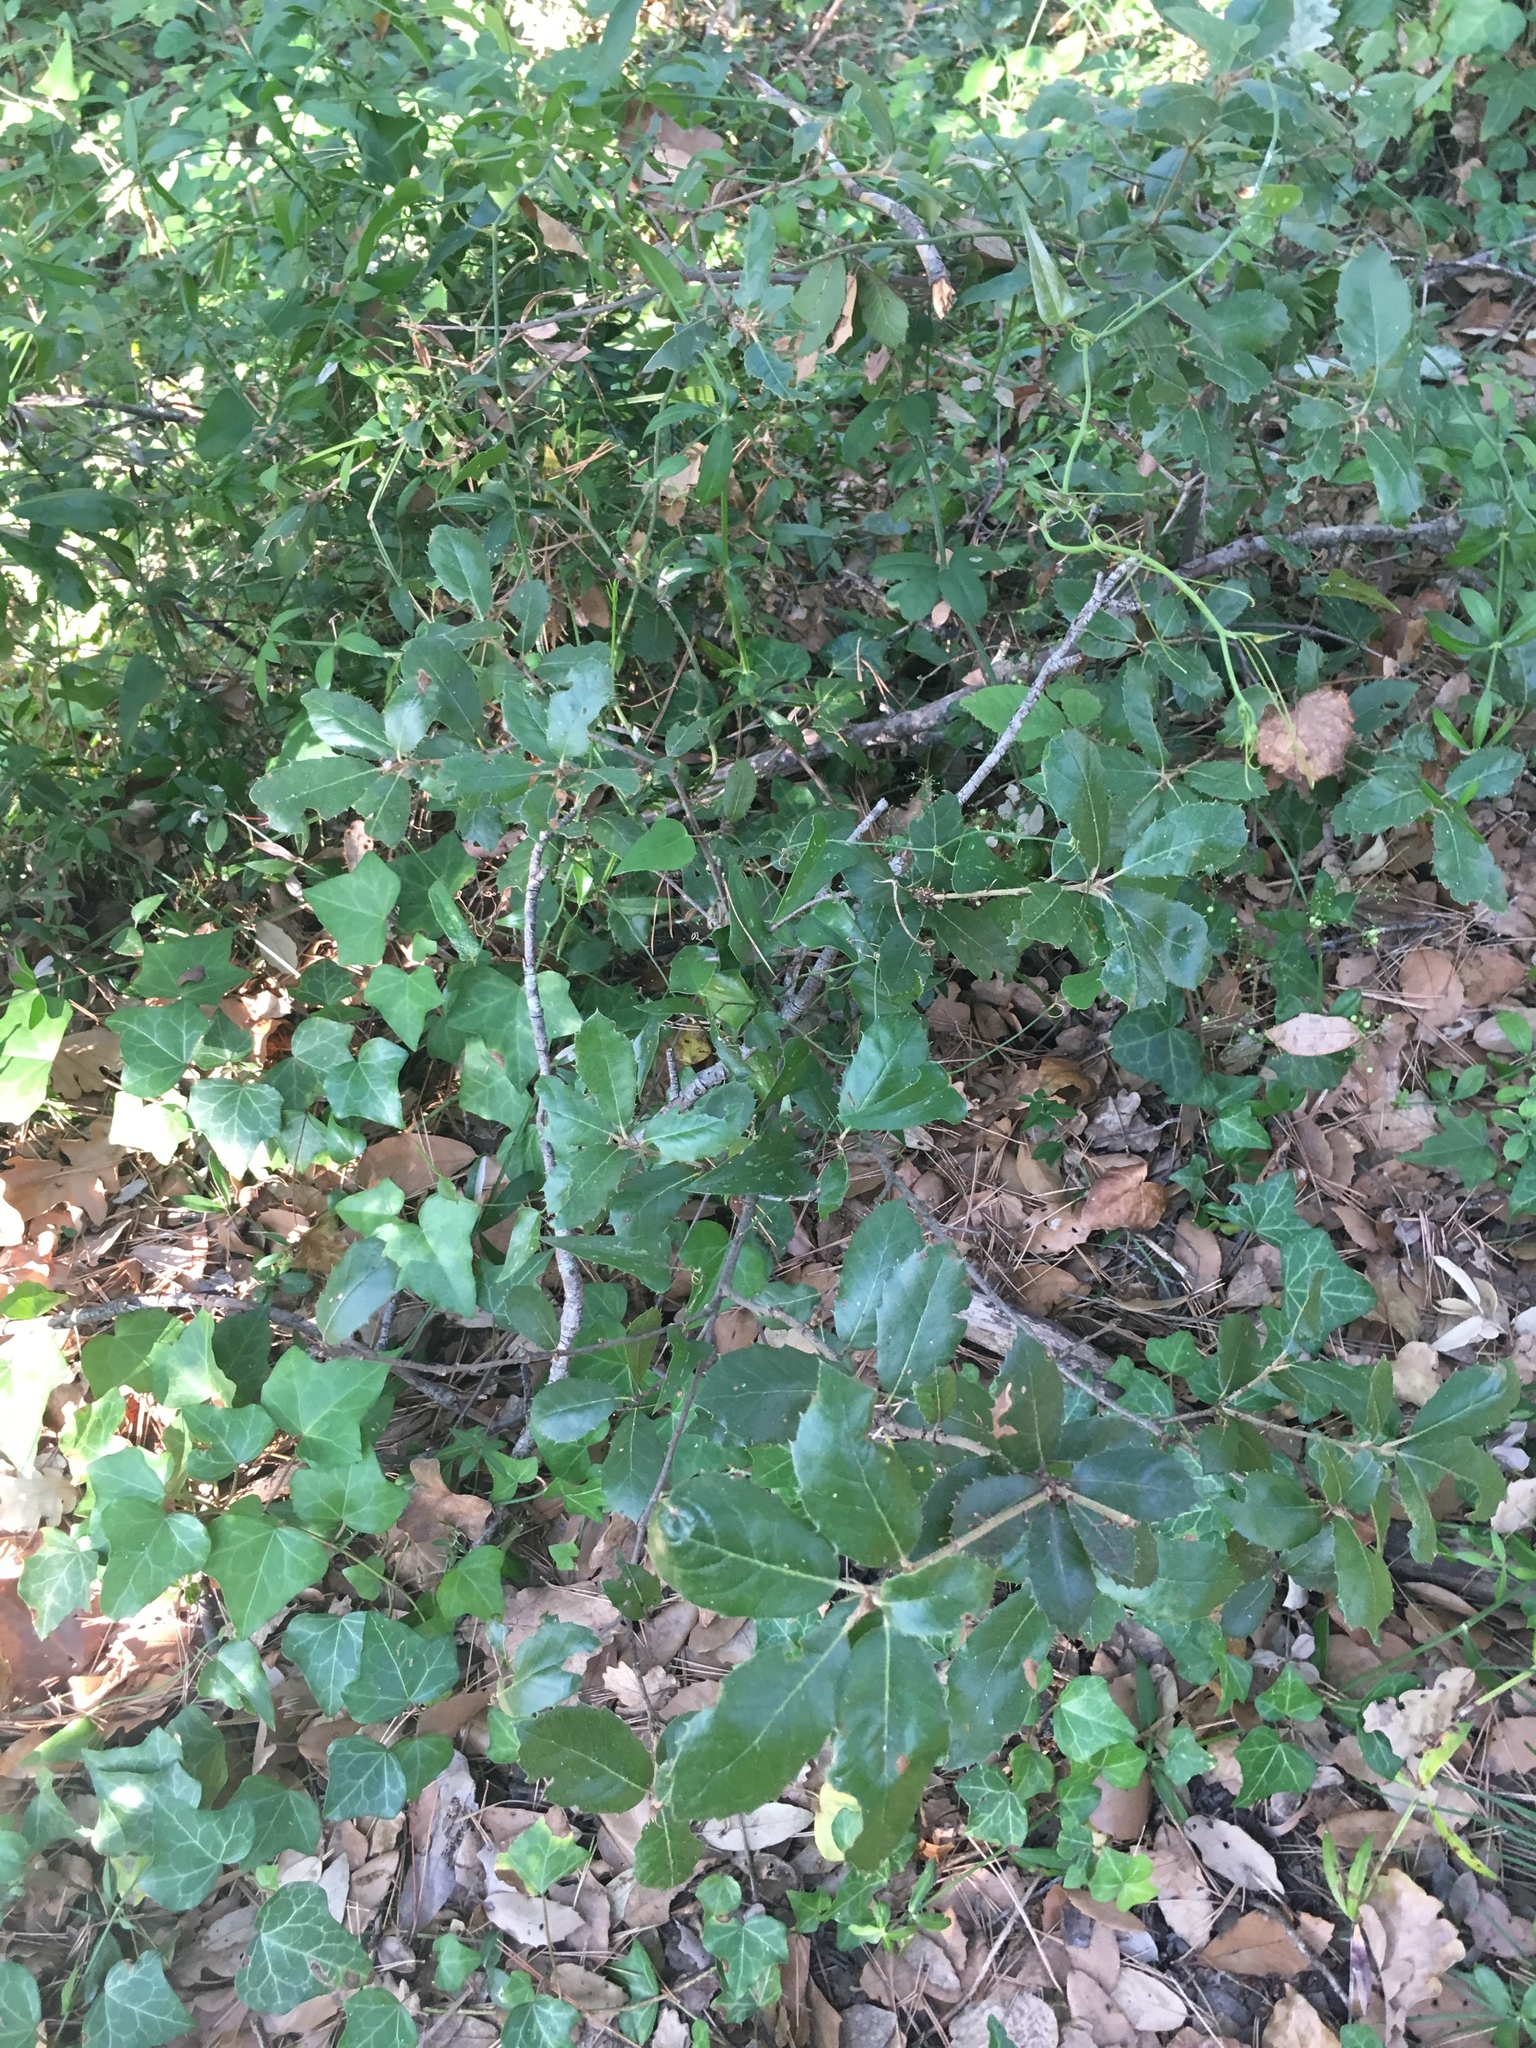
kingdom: Plantae
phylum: Tracheophyta
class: Magnoliopsida
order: Fagales
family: Fagaceae
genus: Quercus
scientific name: Quercus ilex
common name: Evergreen oak
